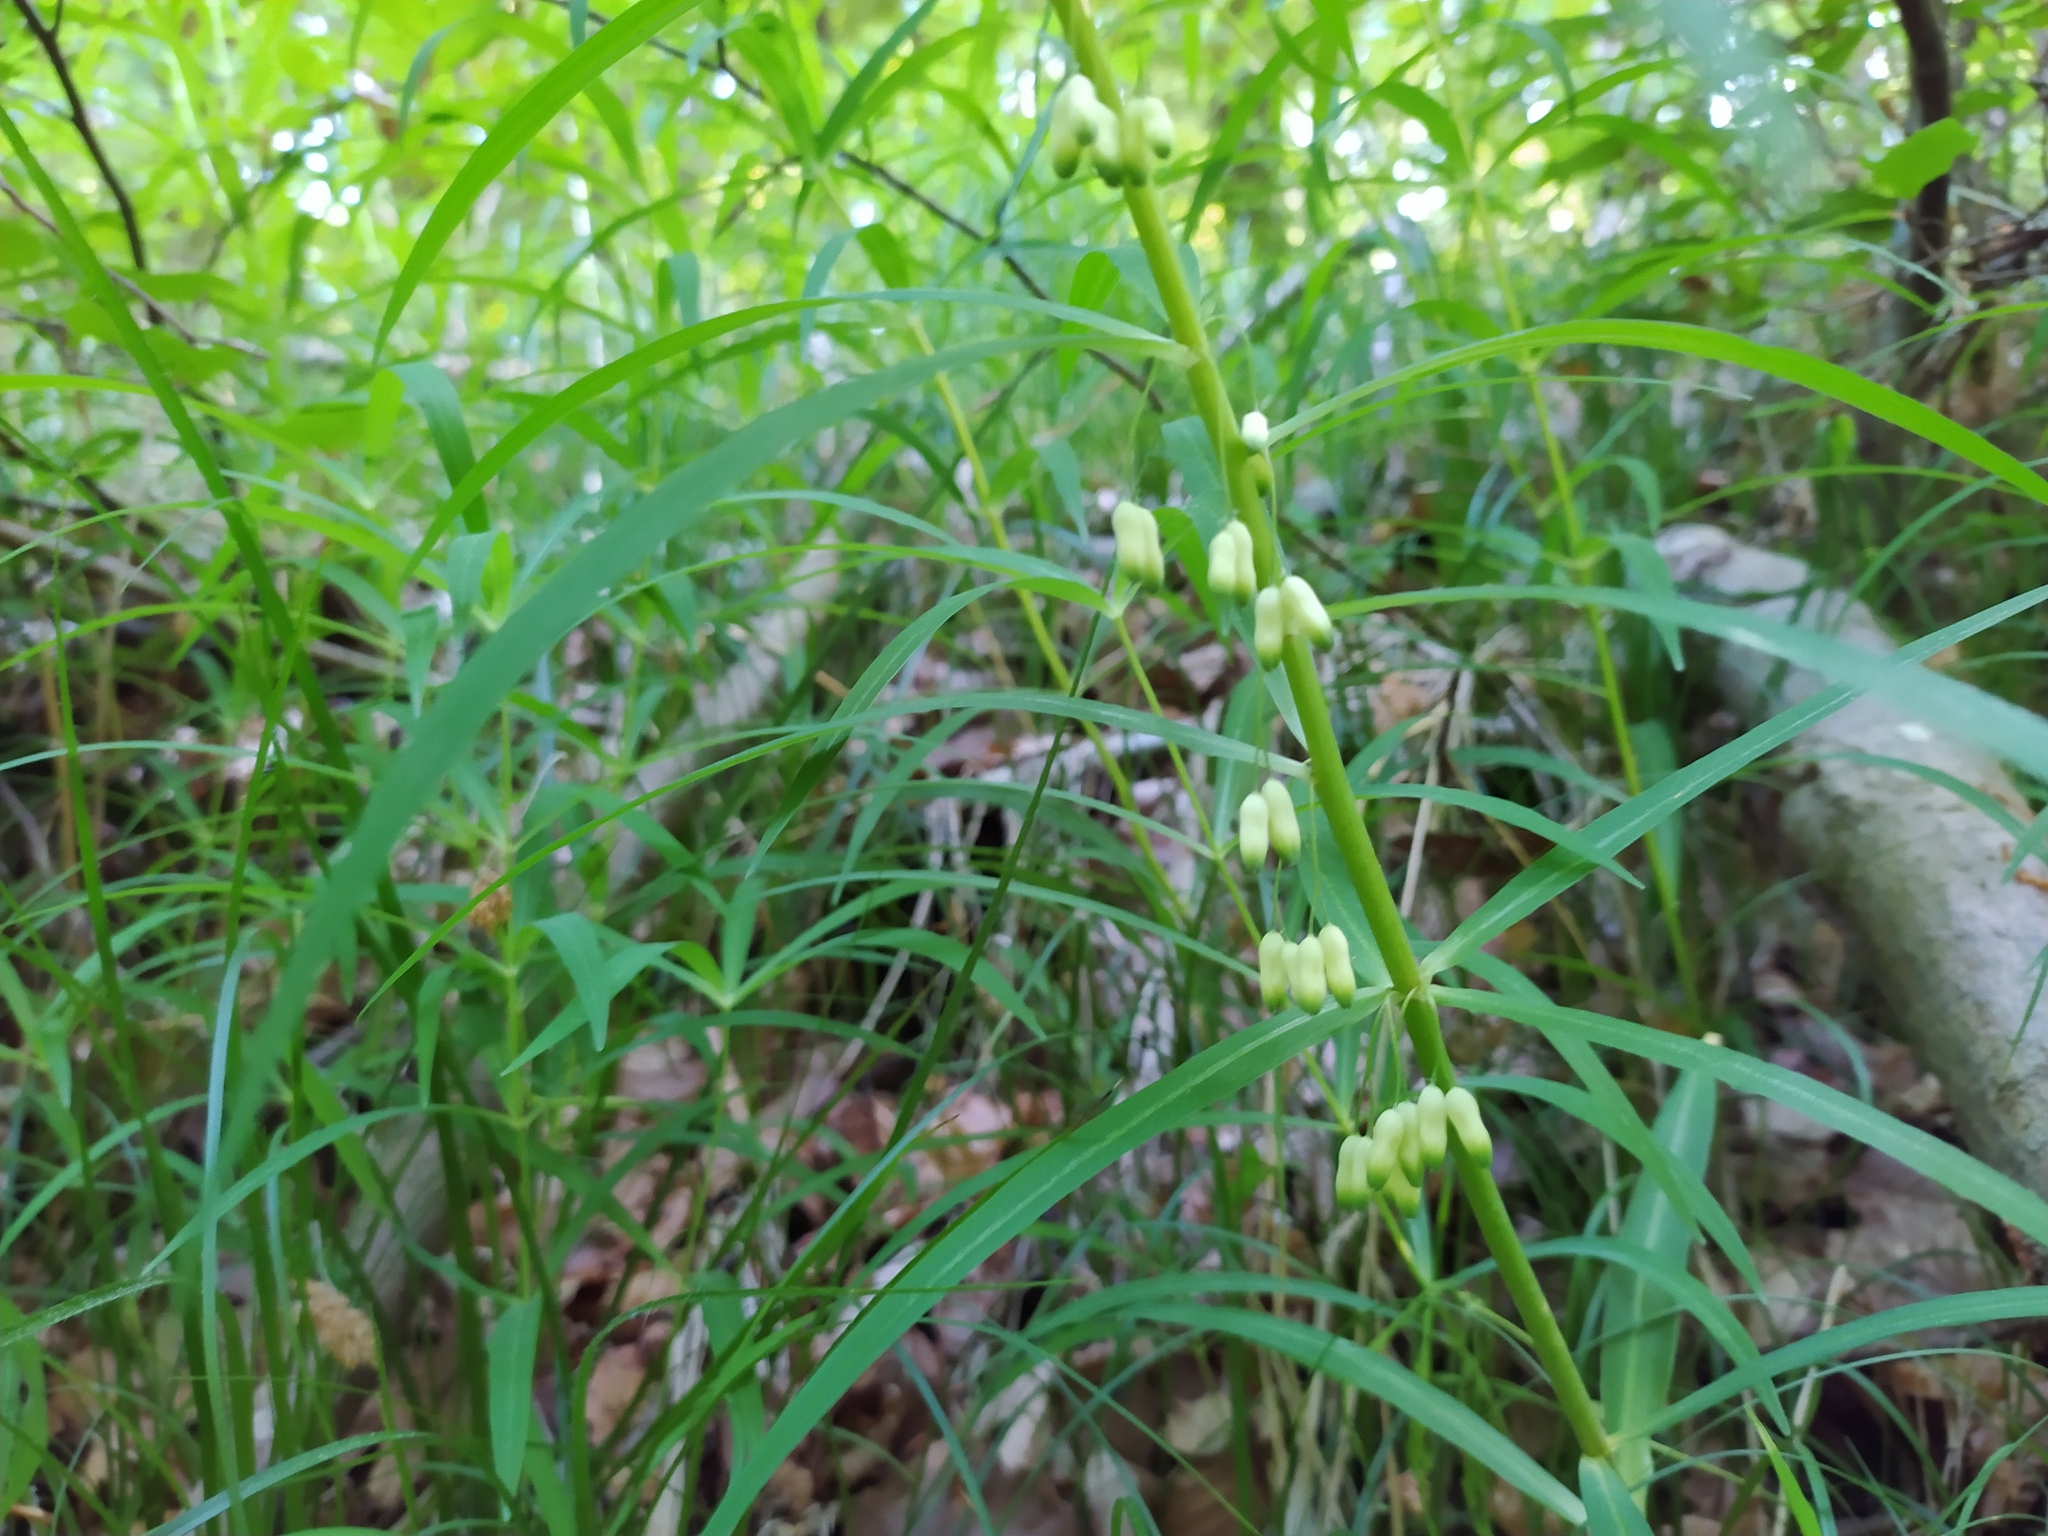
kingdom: Plantae
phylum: Tracheophyta
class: Liliopsida
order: Asparagales
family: Asparagaceae
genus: Polygonatum
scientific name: Polygonatum verticillatum
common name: Whorled solomon's-seal
